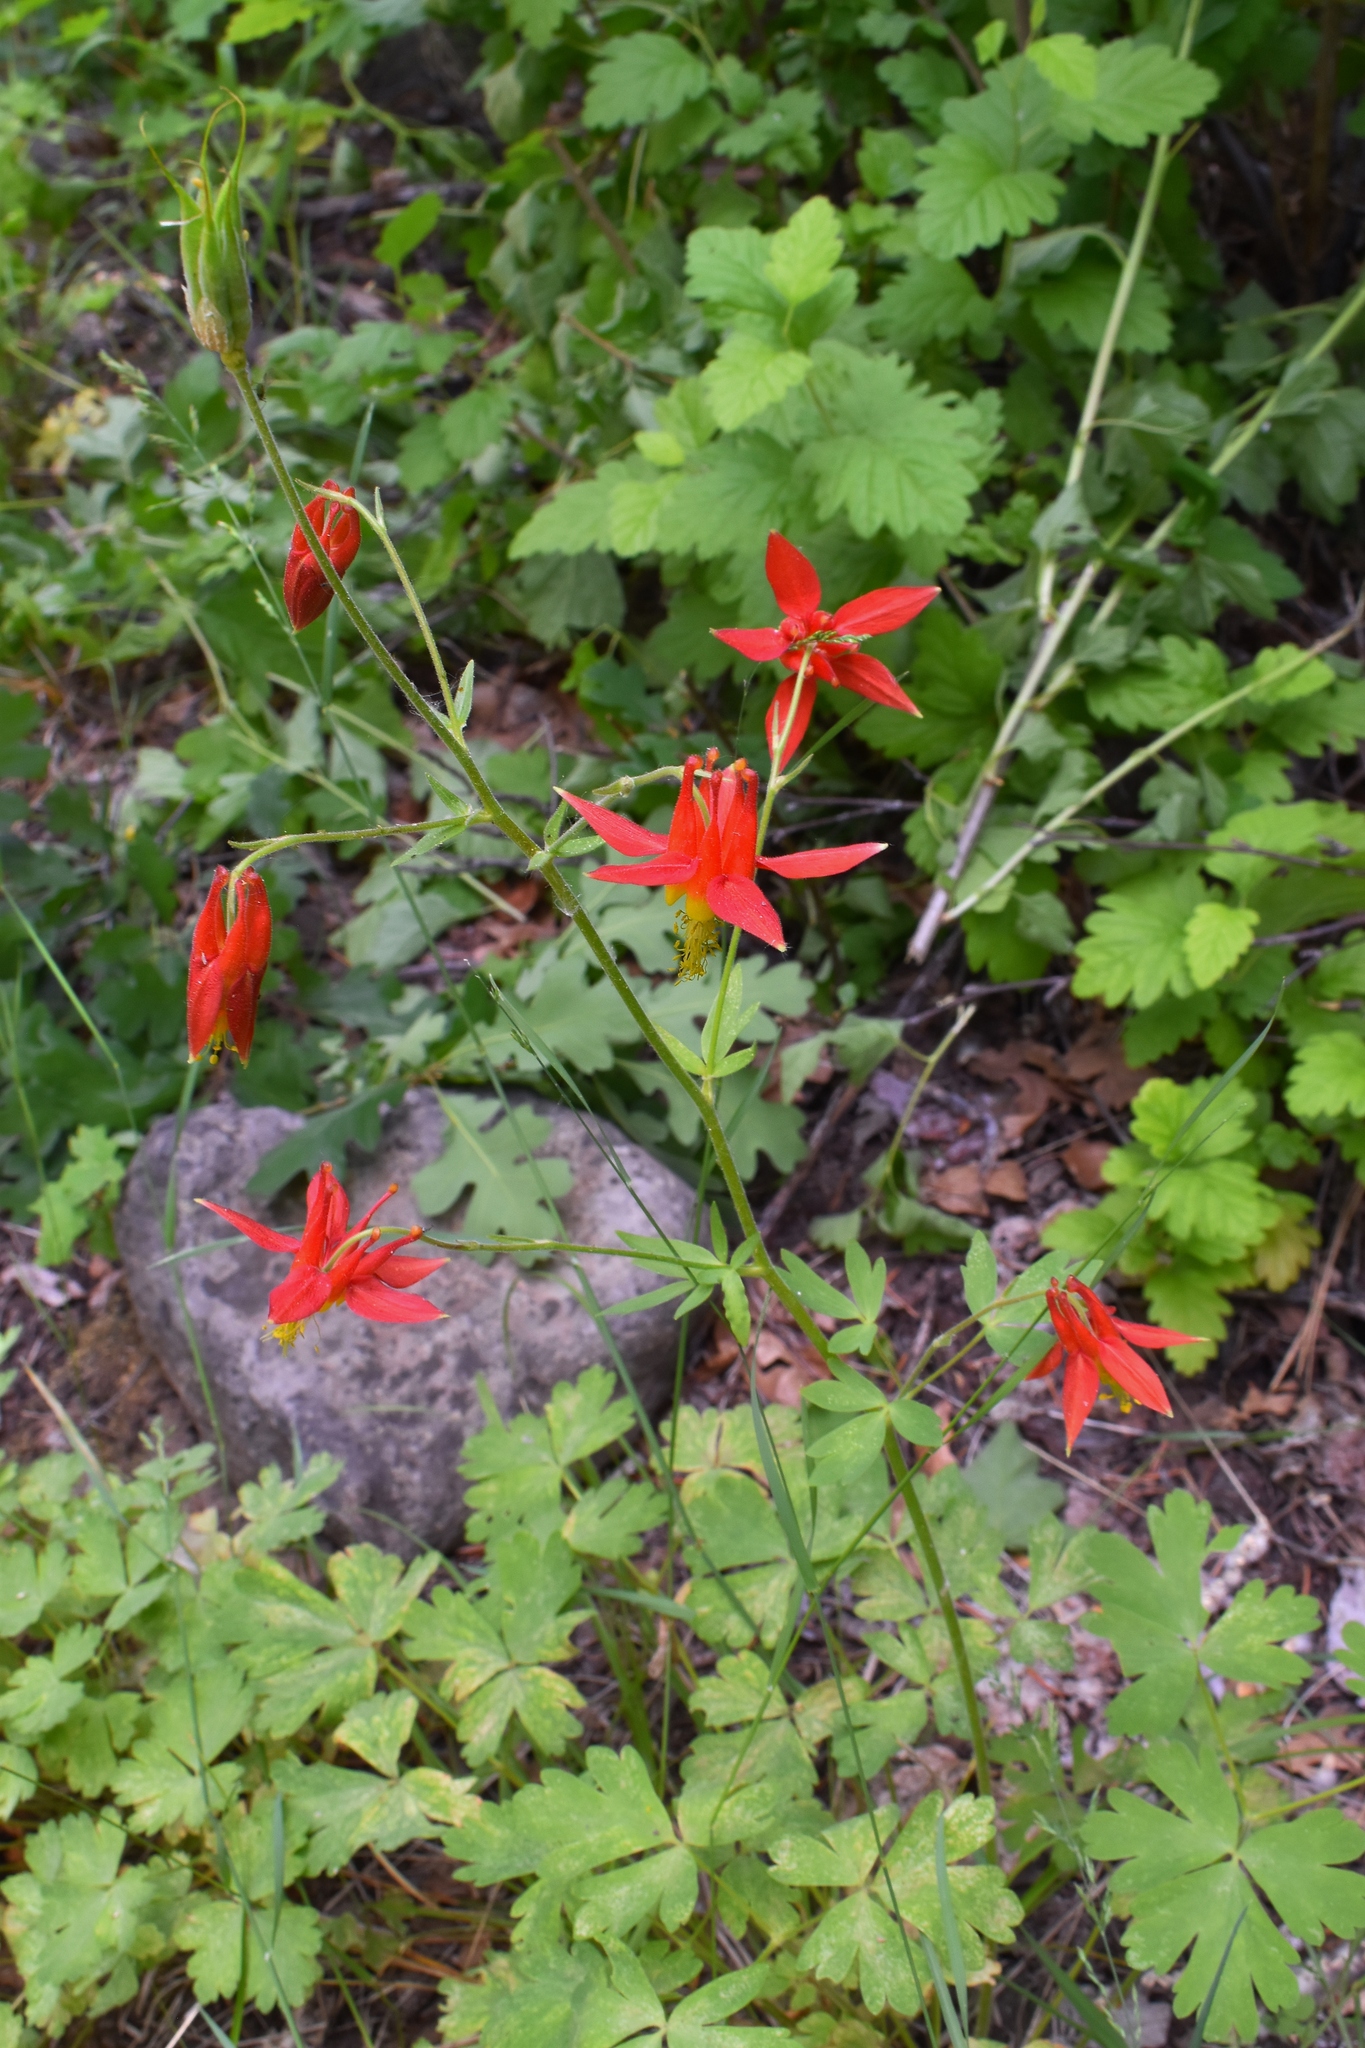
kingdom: Plantae
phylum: Tracheophyta
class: Magnoliopsida
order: Ranunculales
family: Ranunculaceae
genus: Aquilegia
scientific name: Aquilegia formosa
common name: Sitka columbine
